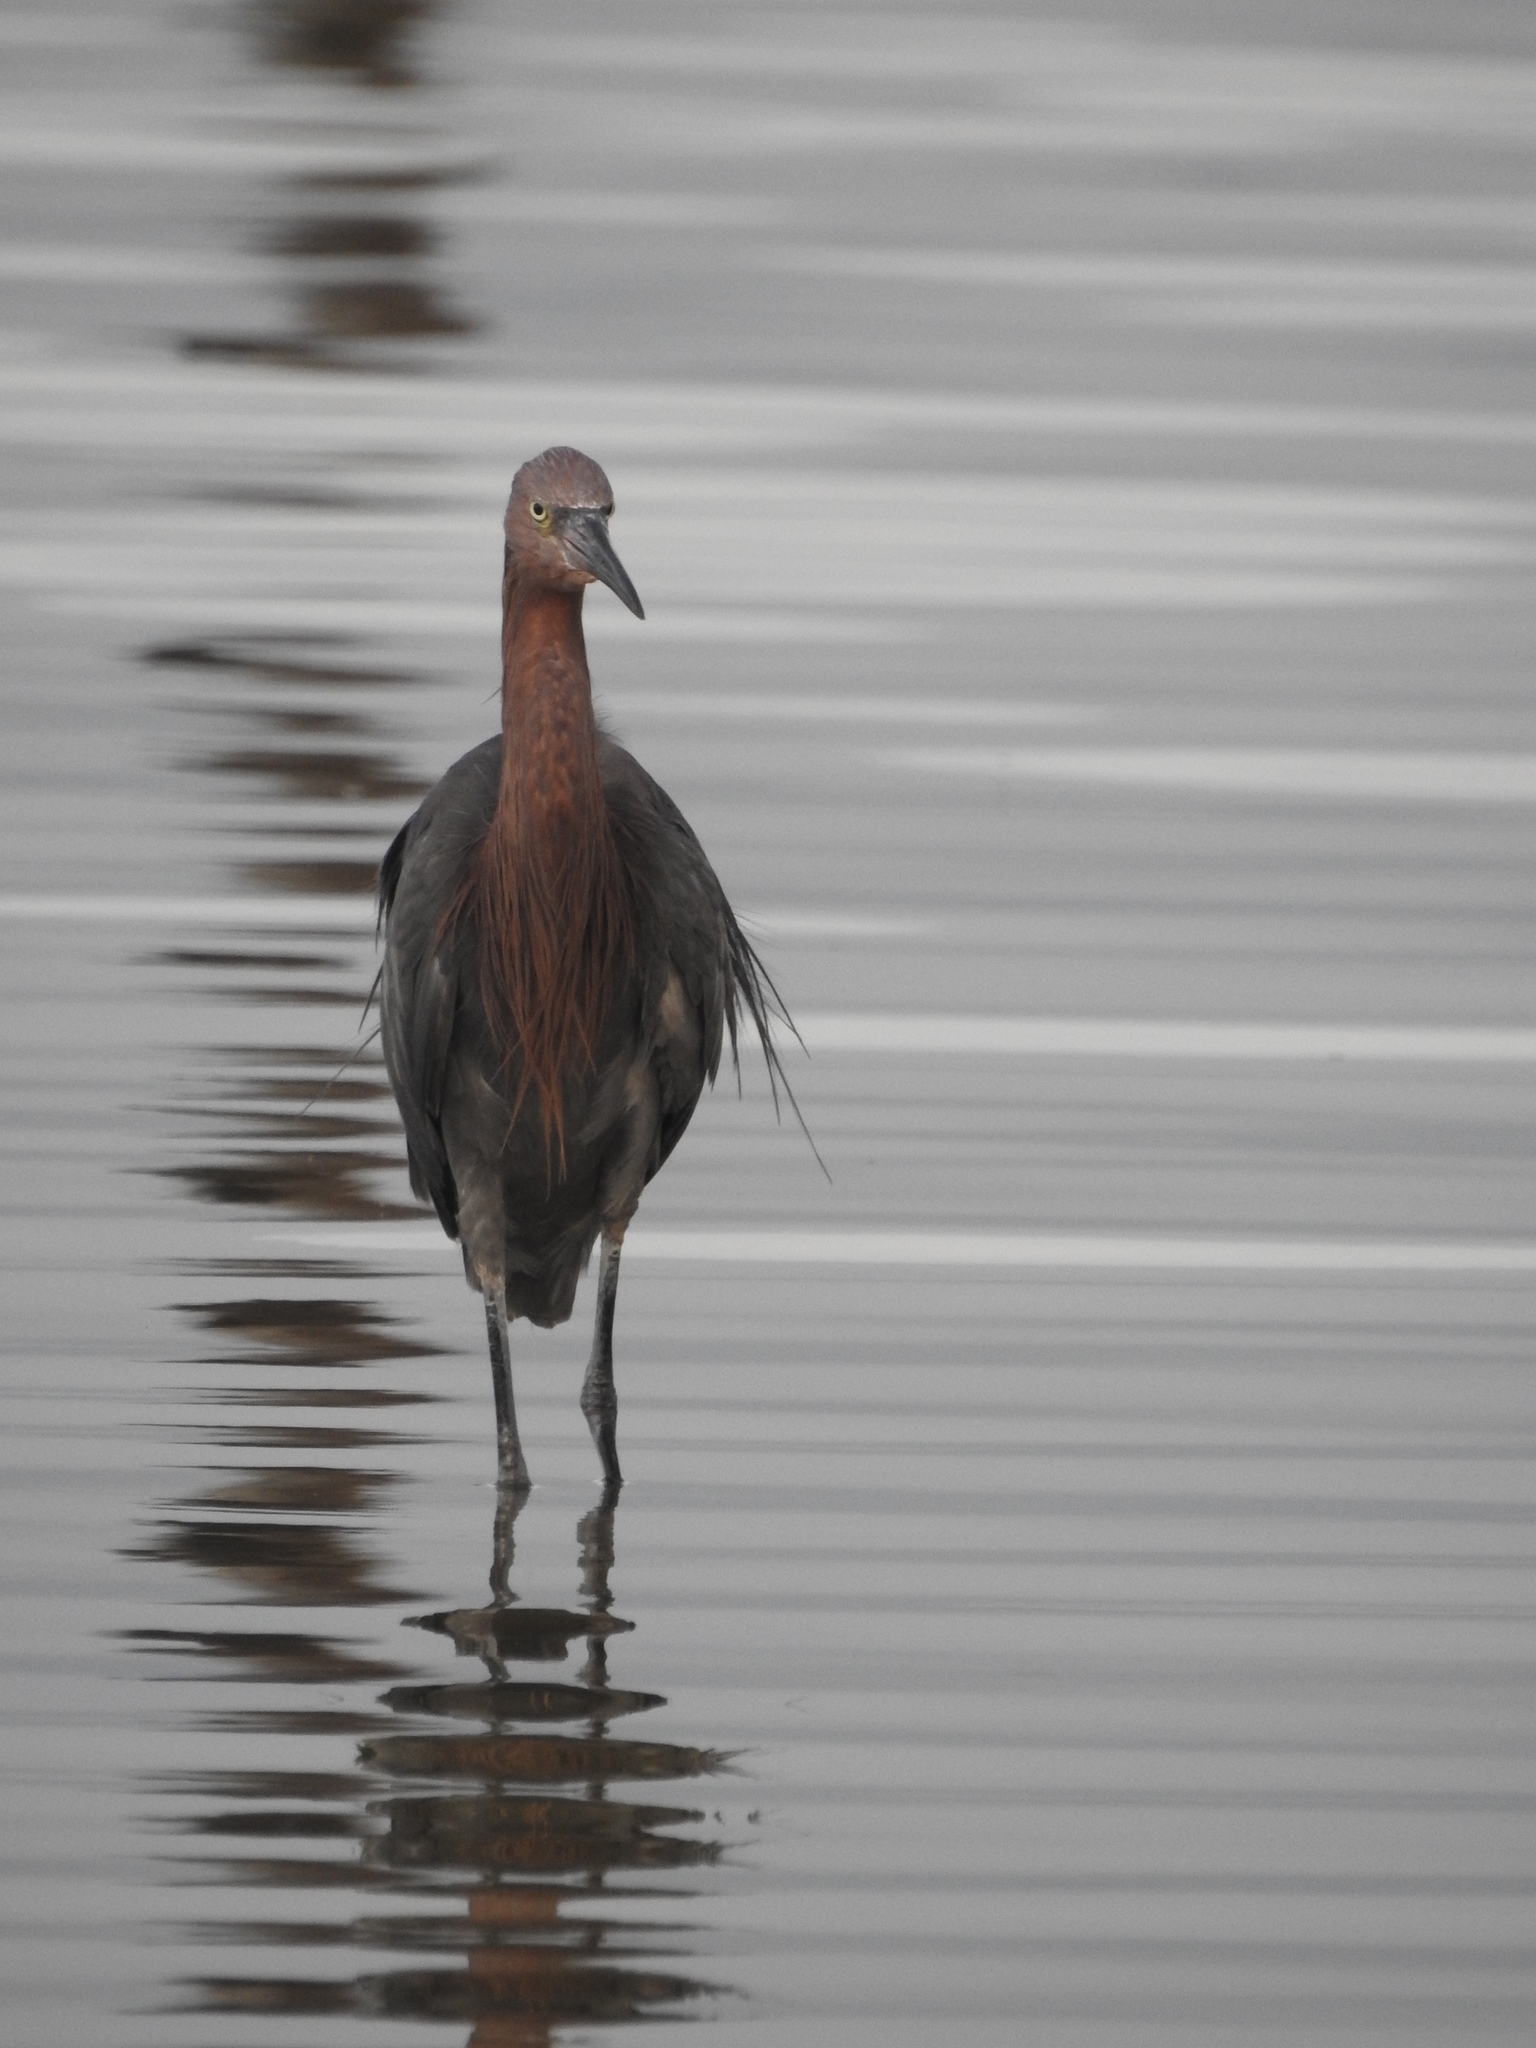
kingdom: Animalia
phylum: Chordata
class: Aves
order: Pelecaniformes
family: Ardeidae
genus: Egretta
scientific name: Egretta rufescens
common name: Reddish egret
